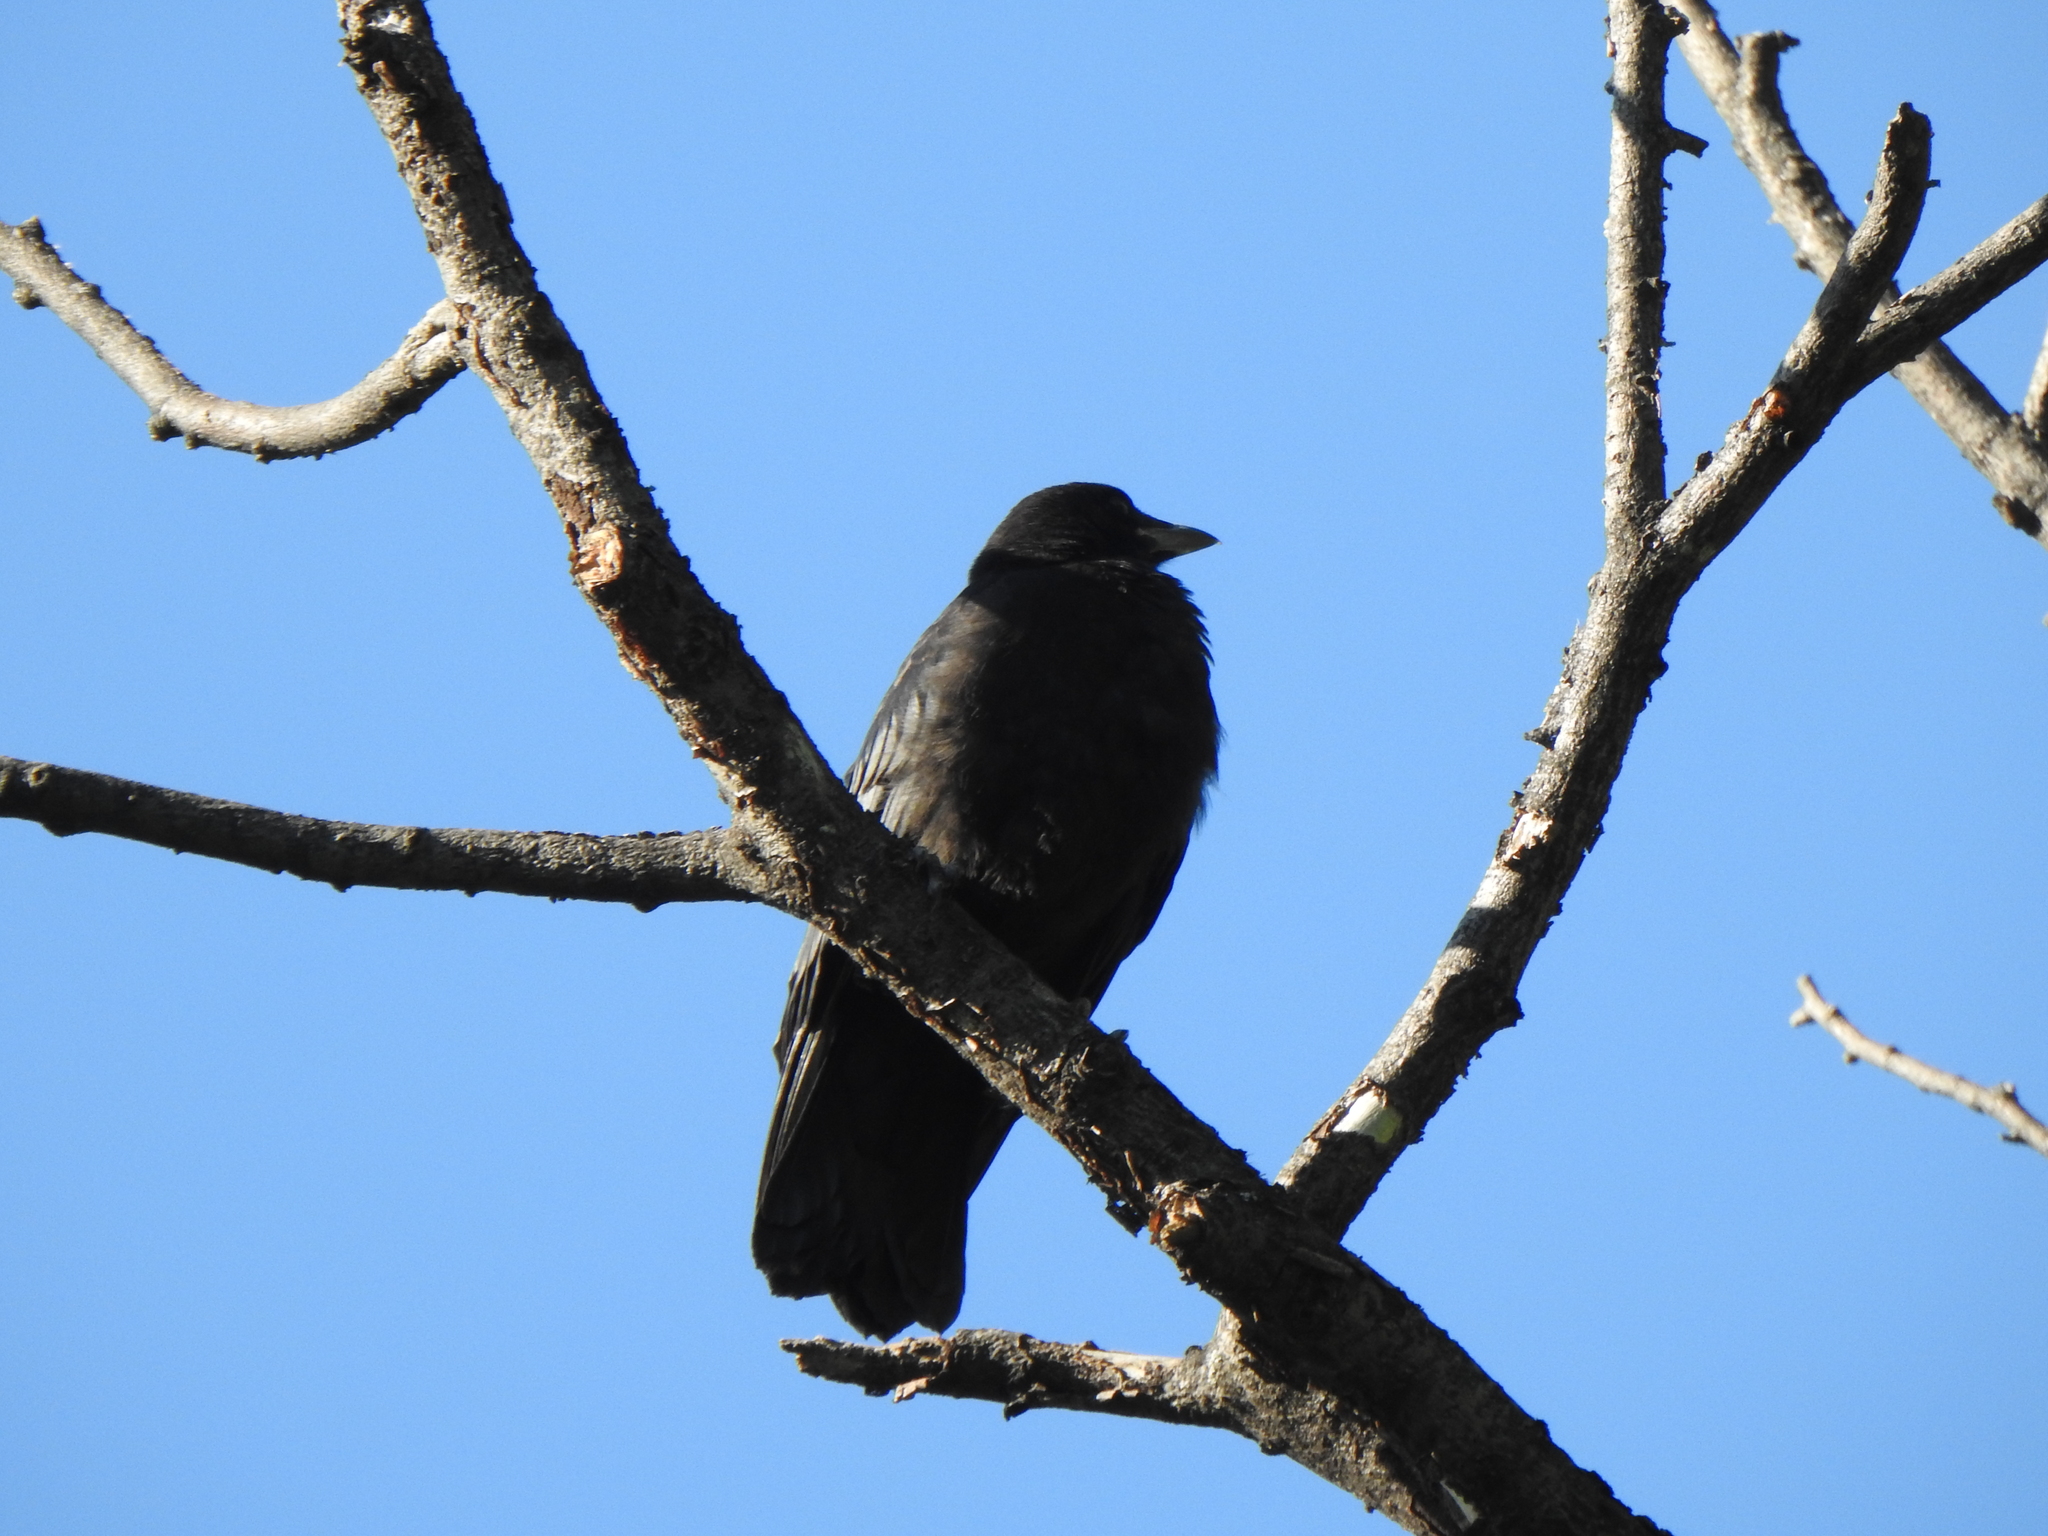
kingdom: Animalia
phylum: Chordata
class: Aves
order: Passeriformes
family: Corvidae
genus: Corvus
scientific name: Corvus brachyrhynchos
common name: American crow
